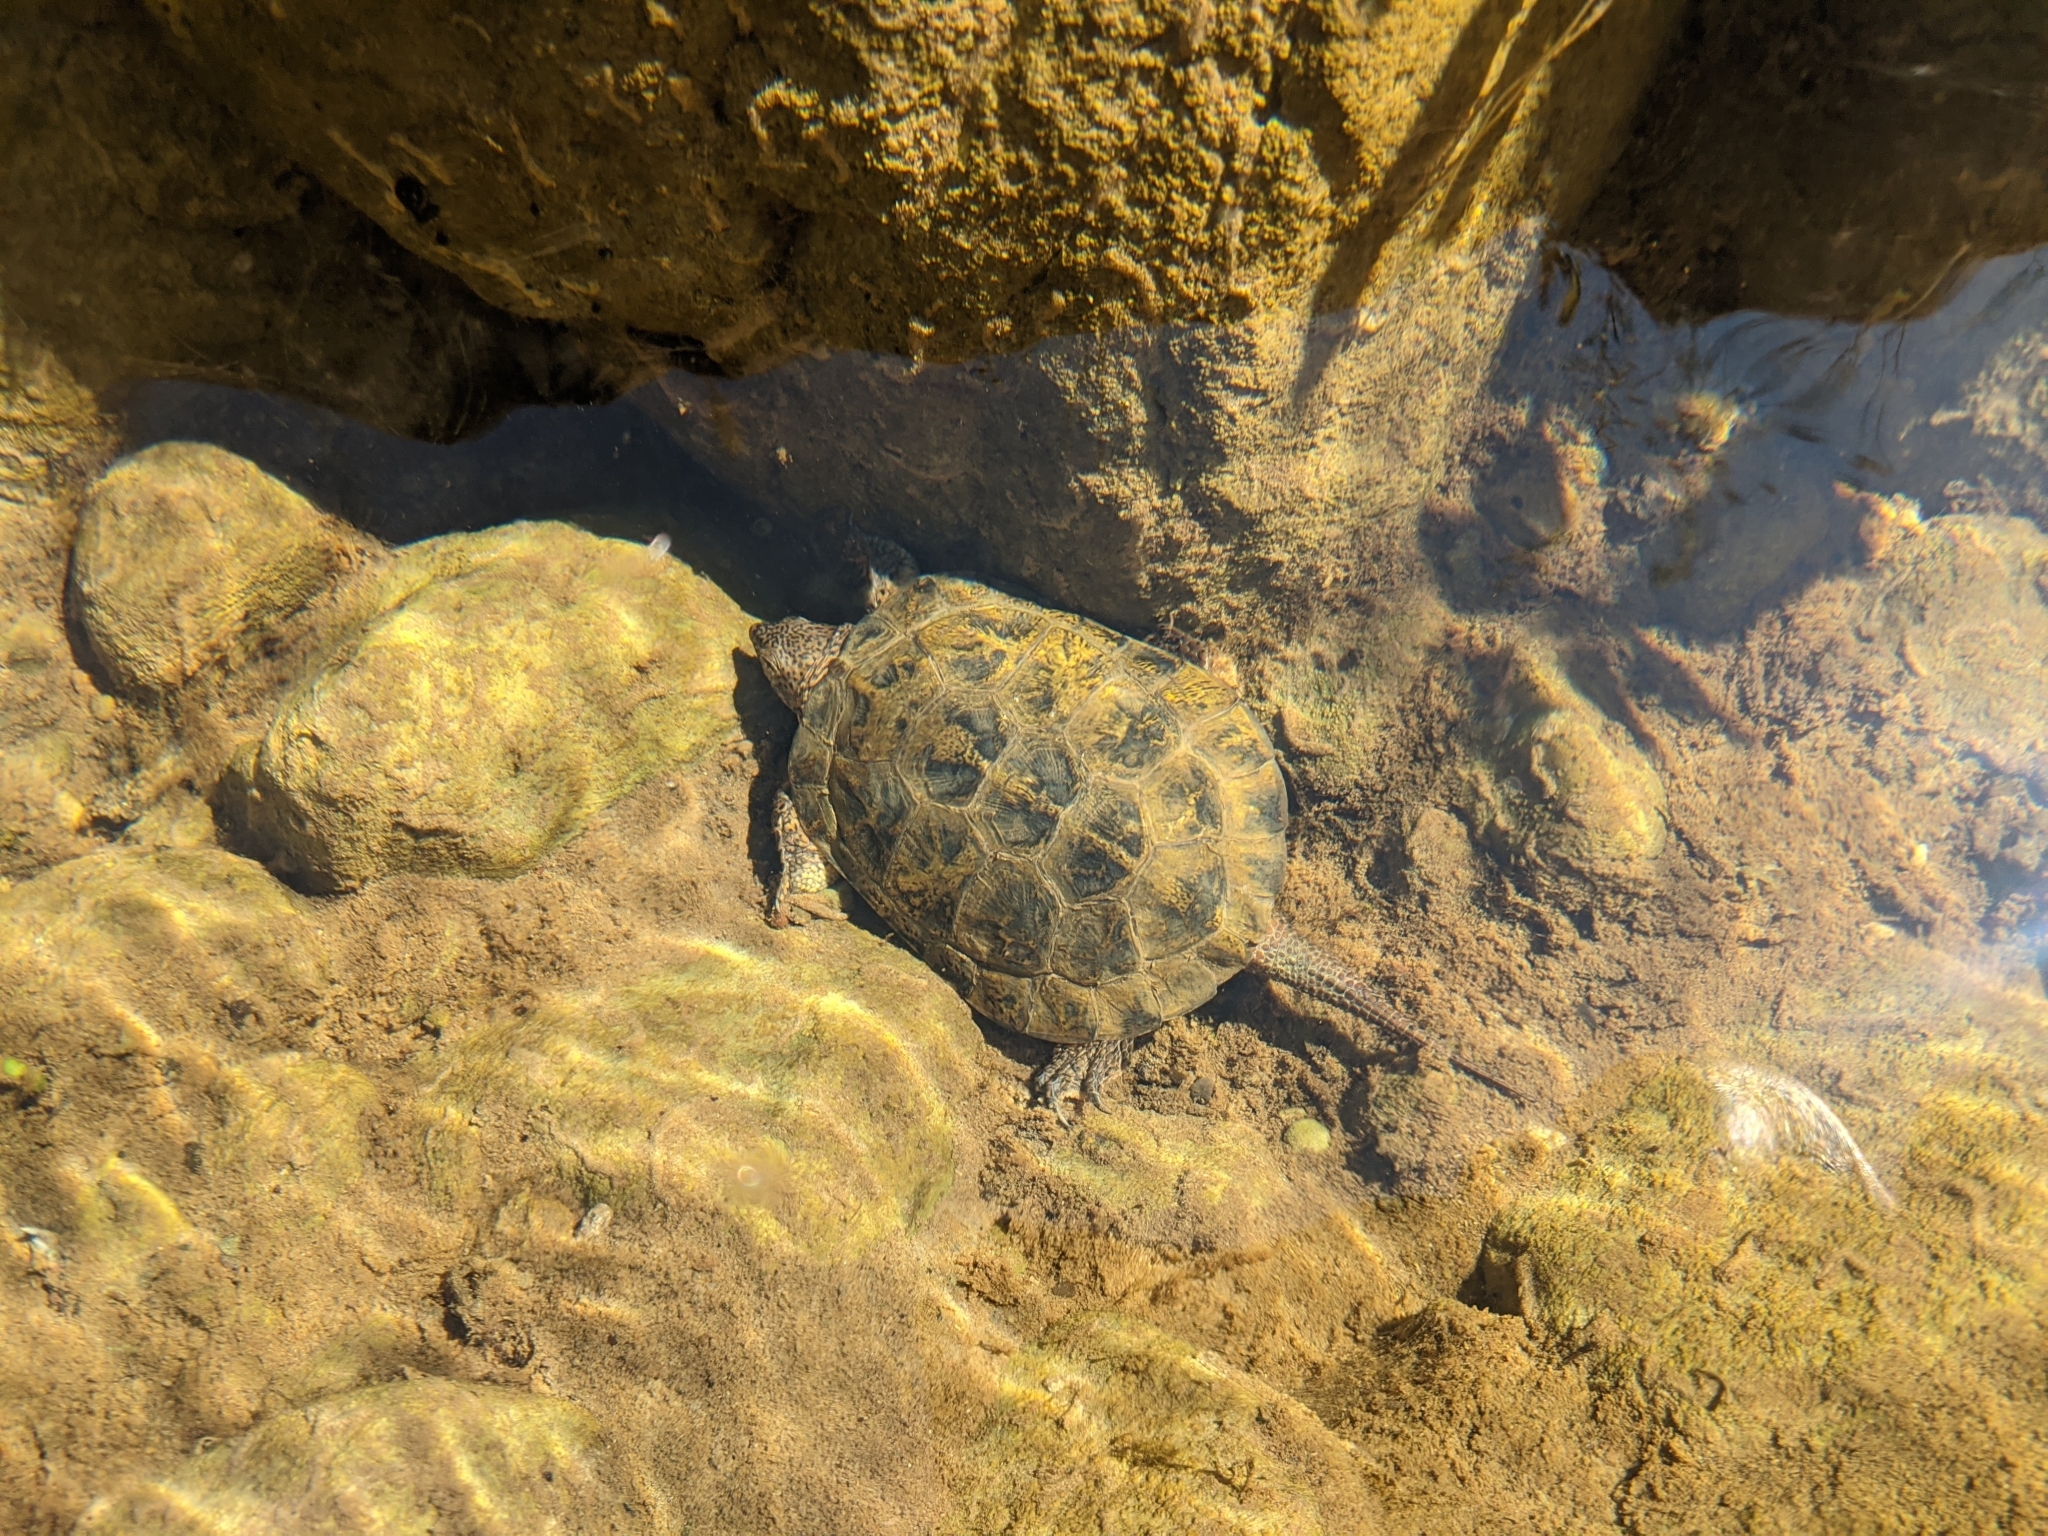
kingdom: Animalia
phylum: Chordata
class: Testudines
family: Emydidae
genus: Actinemys
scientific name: Actinemys marmorata
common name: Western pond turtle
